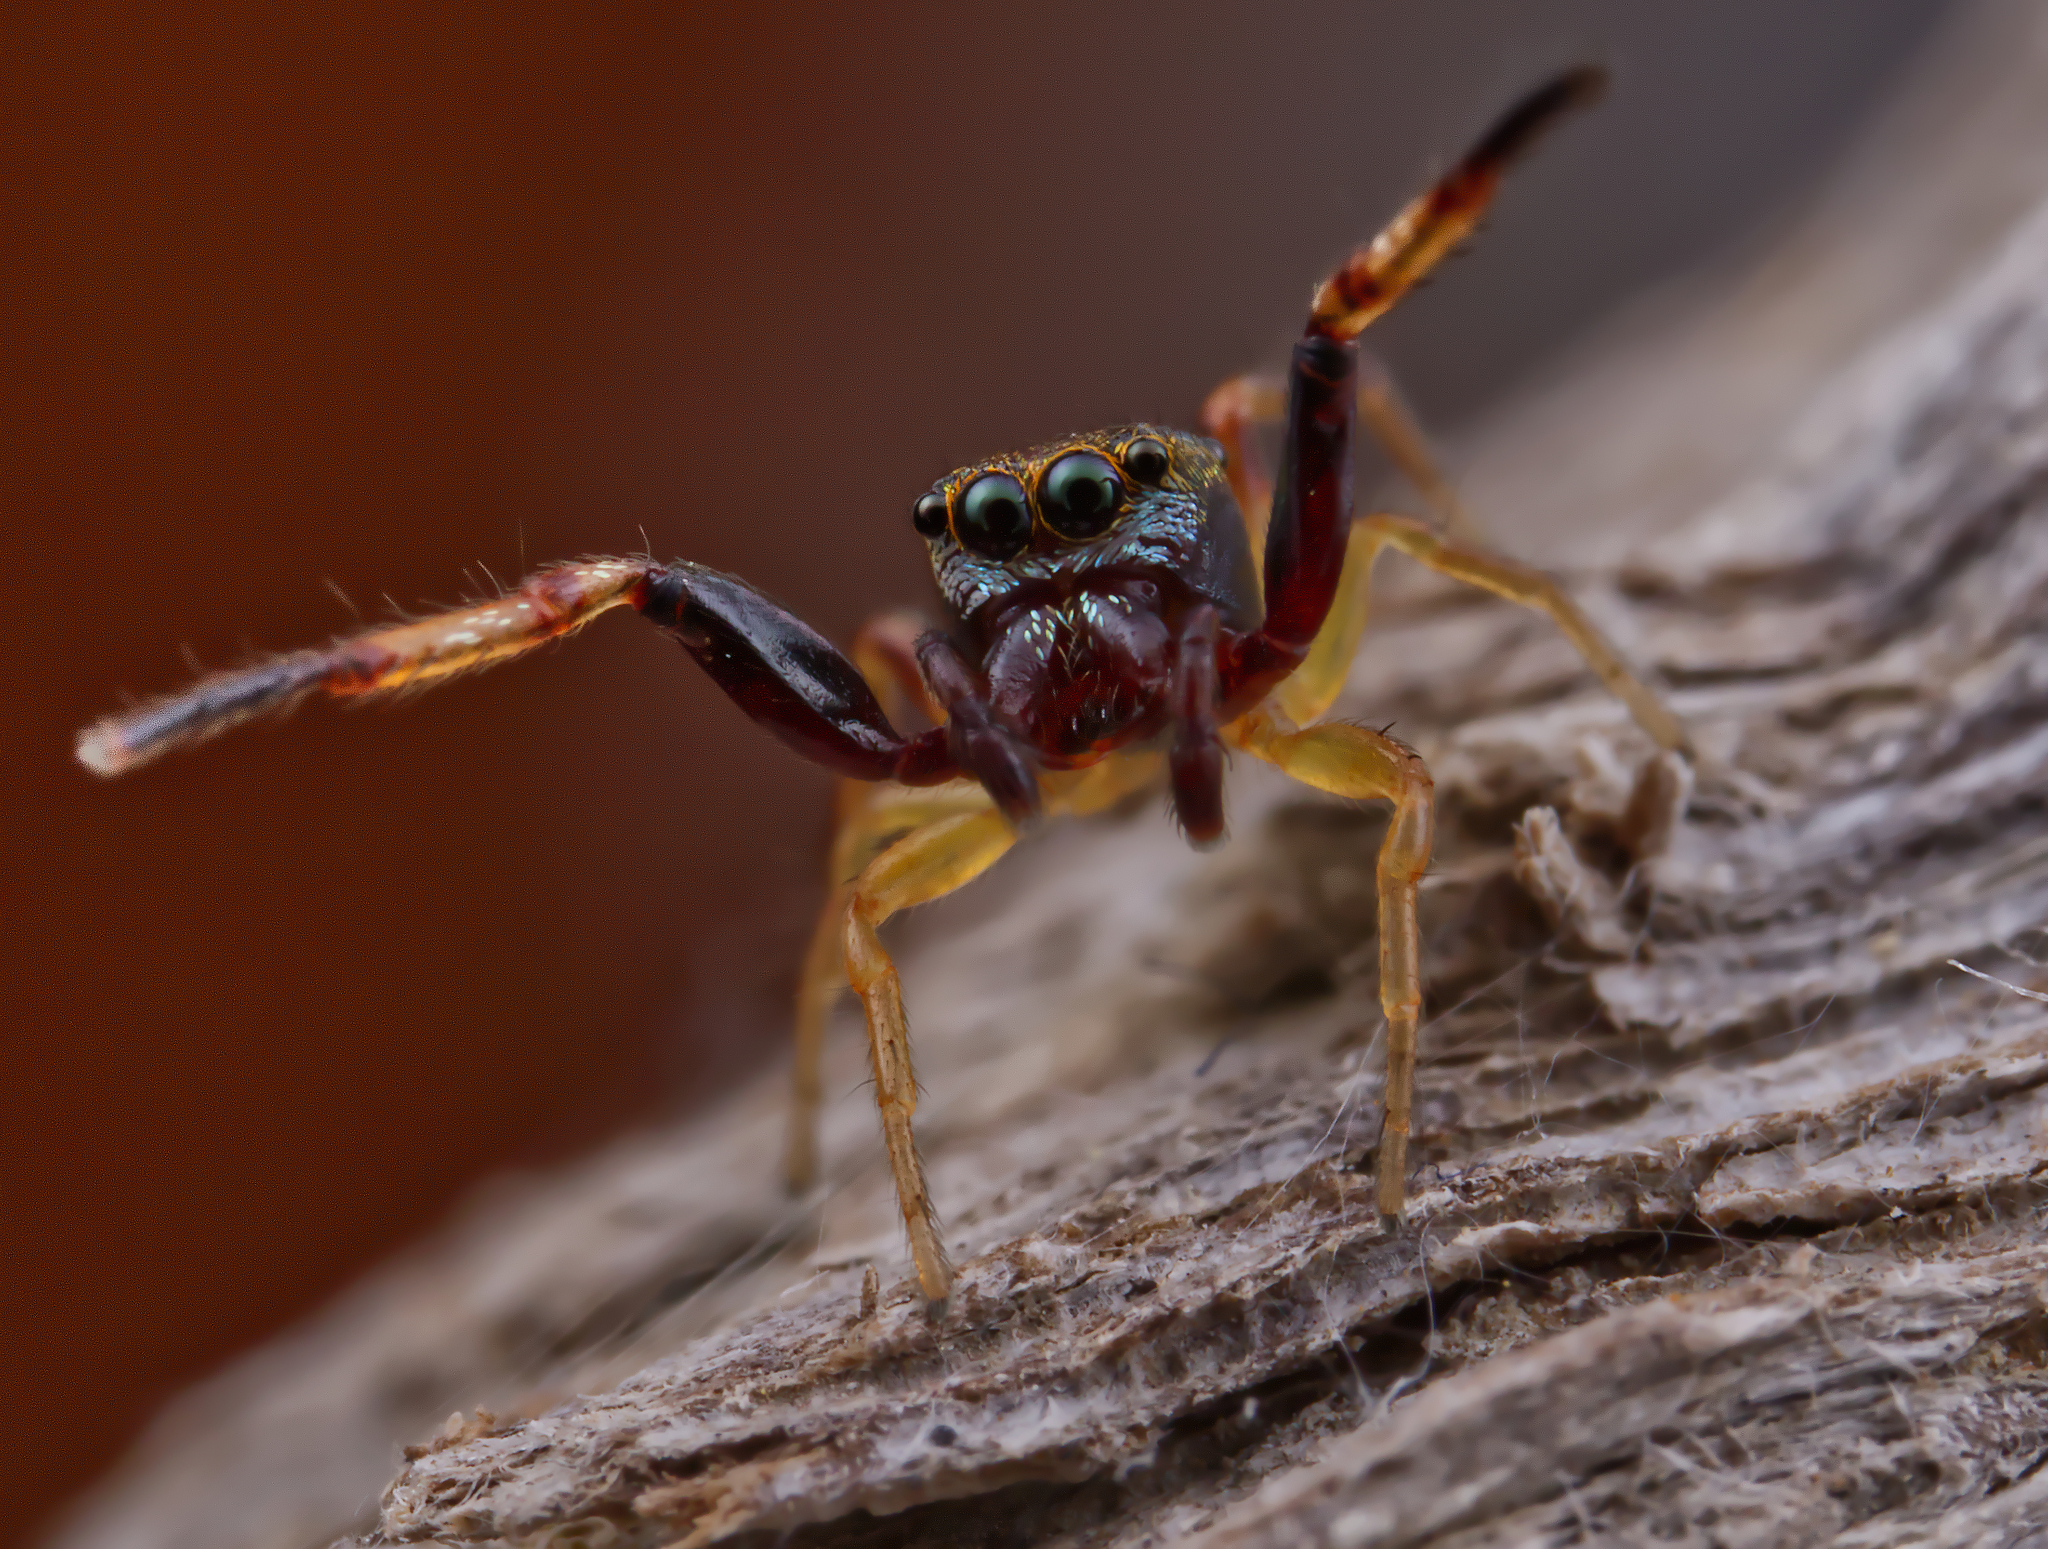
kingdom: Animalia
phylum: Arthropoda
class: Arachnida
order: Araneae
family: Salticidae
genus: Zygoballus
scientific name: Zygoballus rufipes
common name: Jumping spiders
